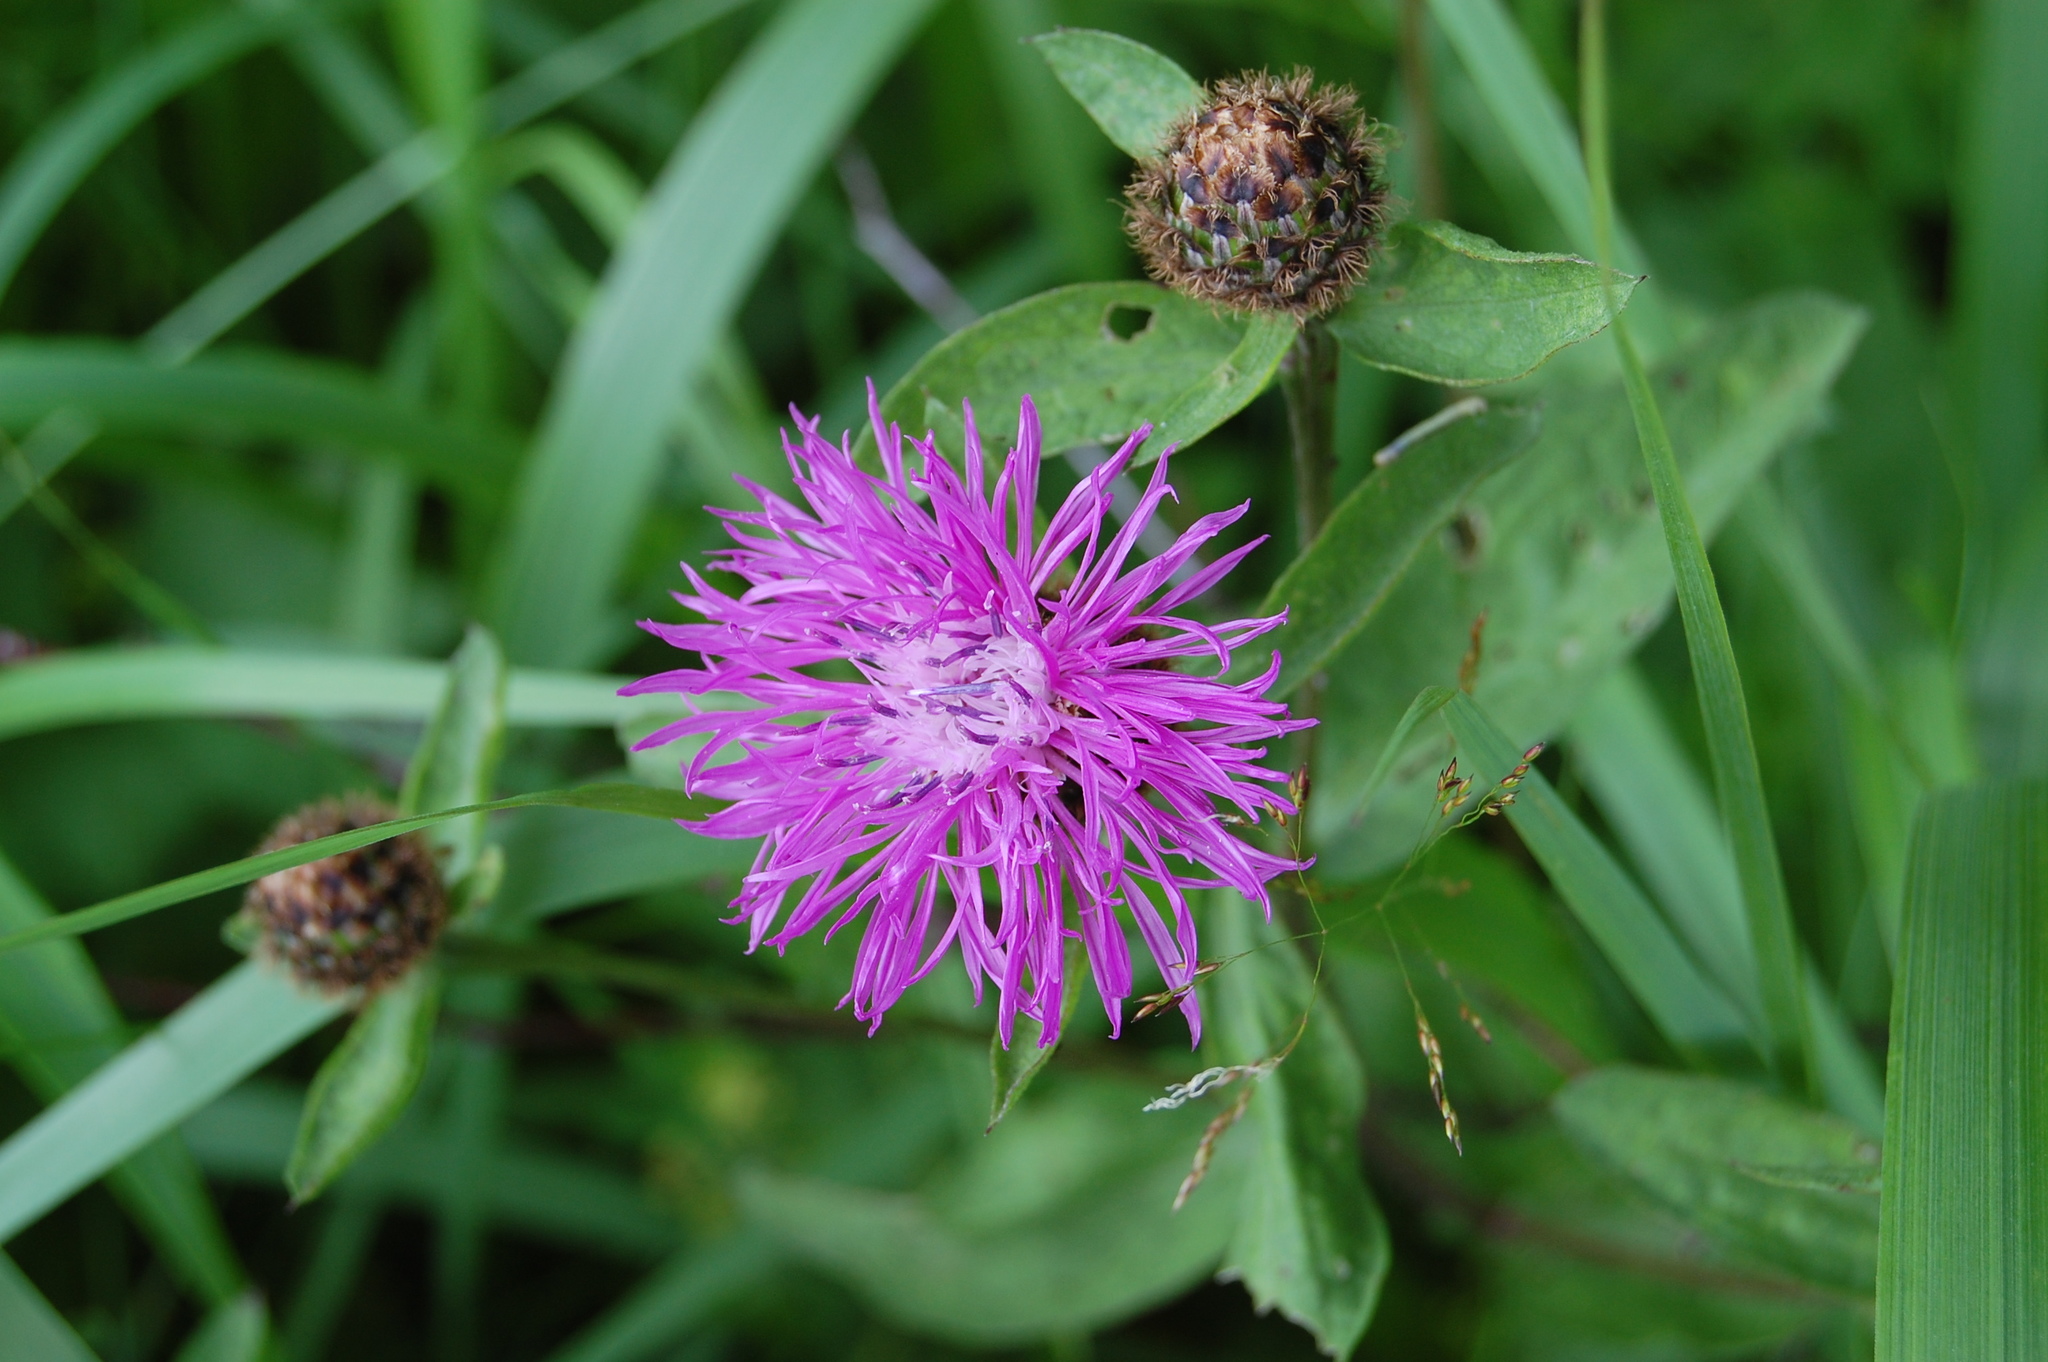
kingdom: Plantae
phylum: Tracheophyta
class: Magnoliopsida
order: Asterales
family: Asteraceae
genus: Centaurea
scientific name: Centaurea phrygia
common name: Wig knapweed
